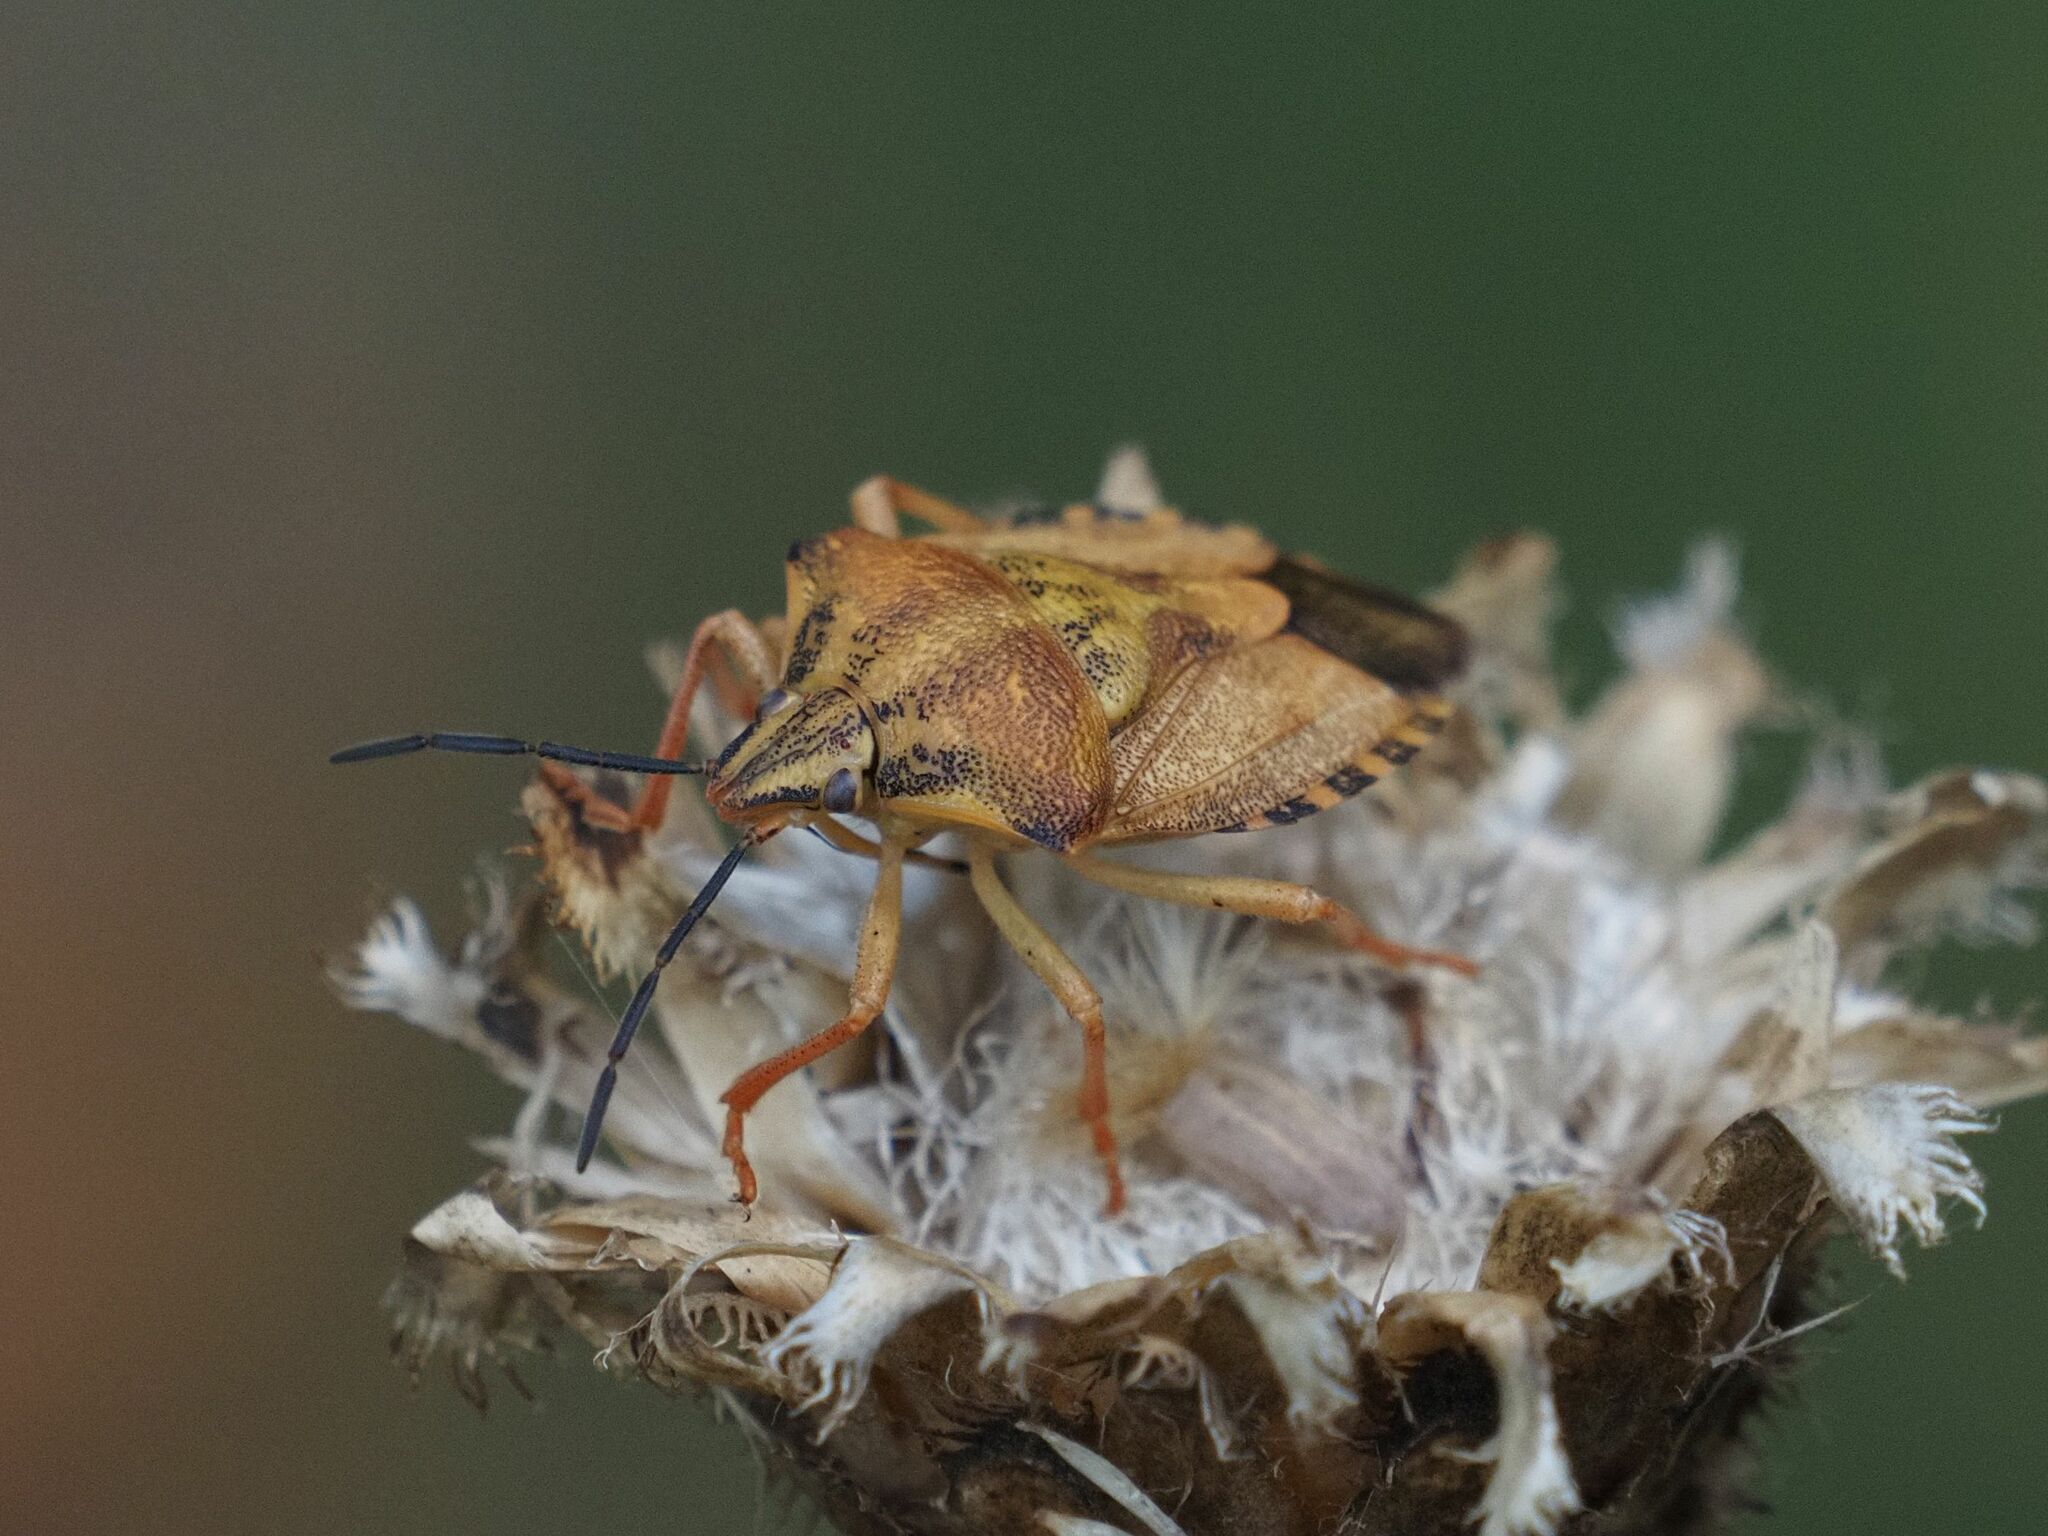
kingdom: Animalia
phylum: Arthropoda
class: Insecta
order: Hemiptera
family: Pentatomidae
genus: Carpocoris
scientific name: Carpocoris purpureipennis
